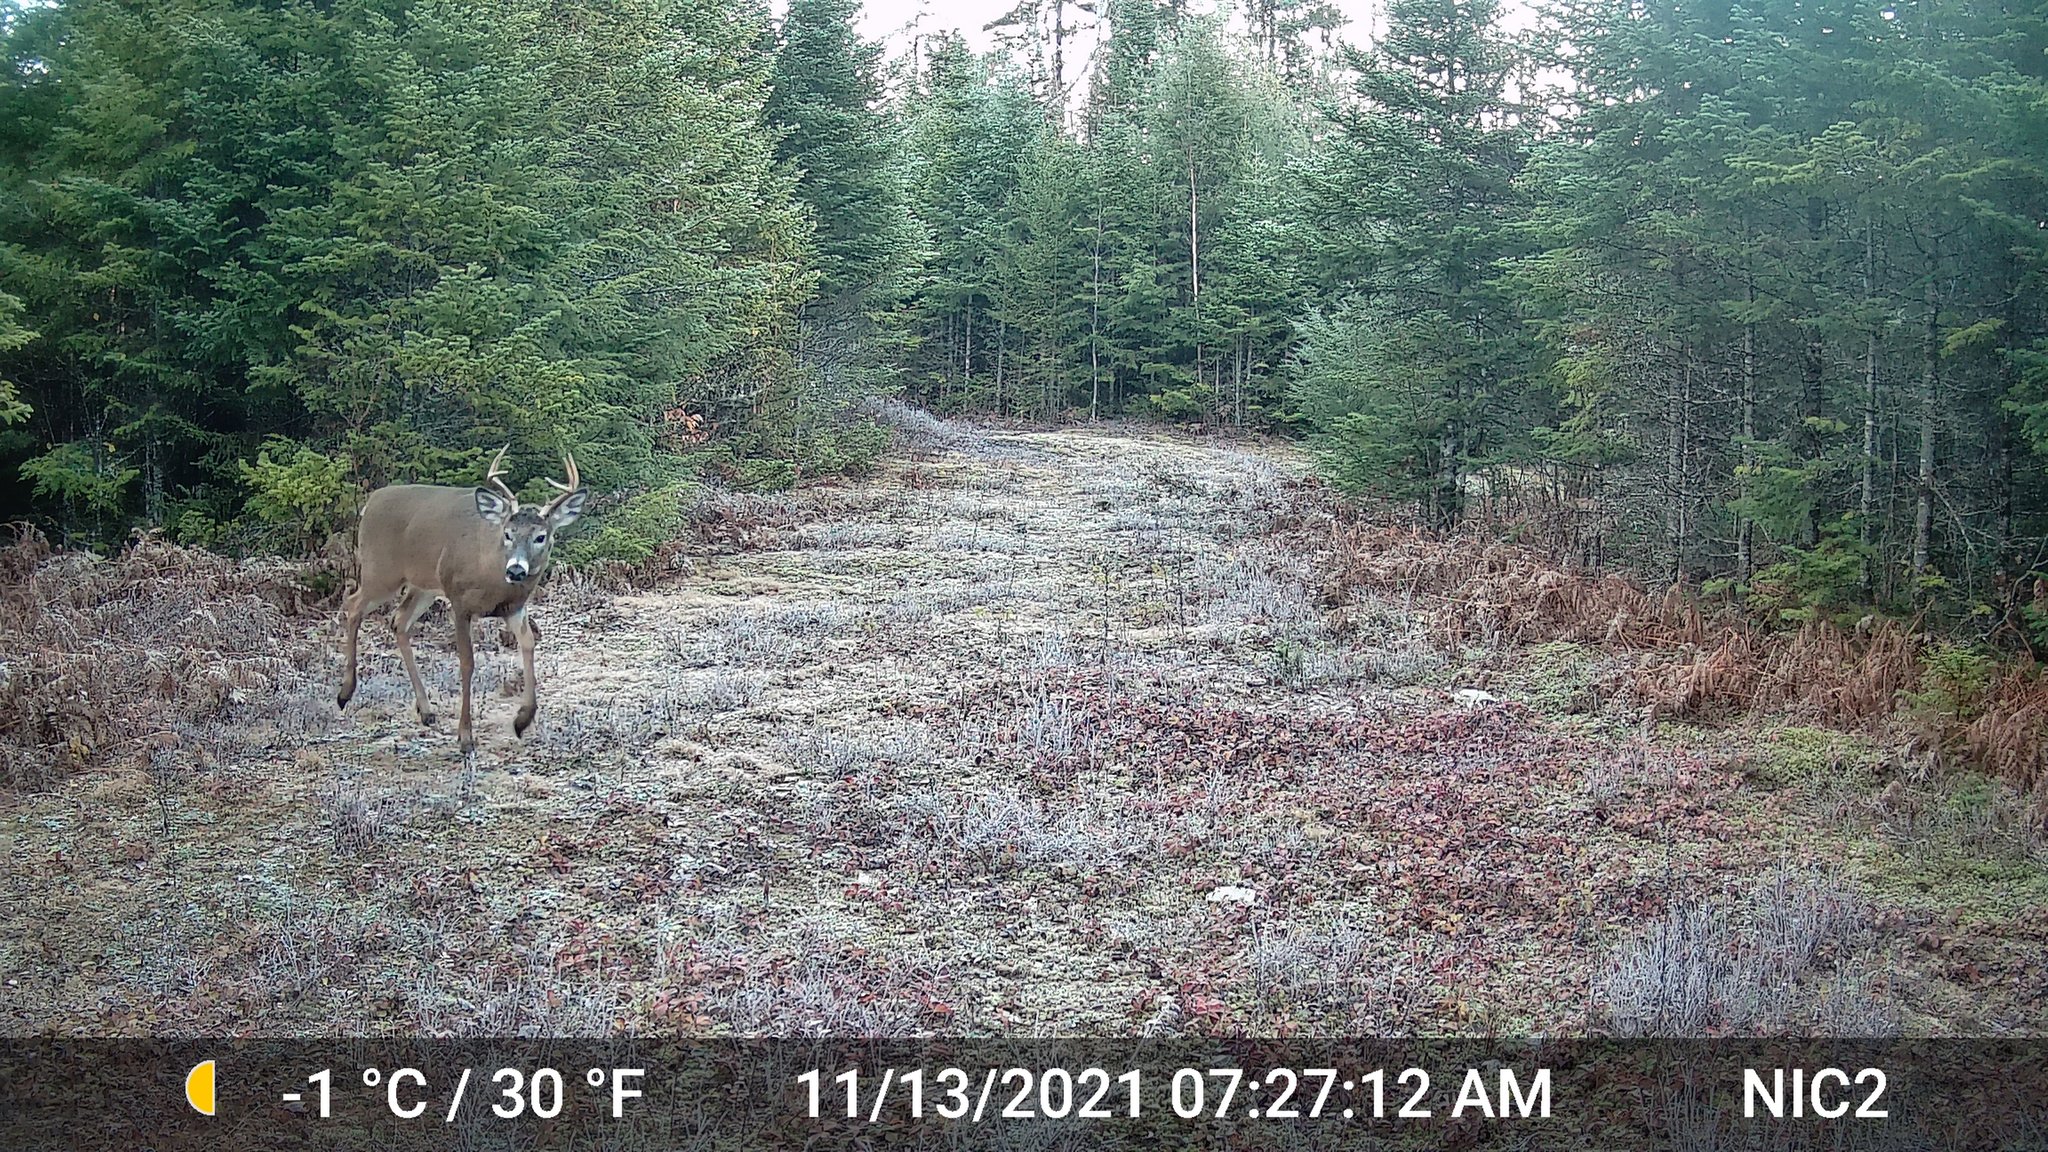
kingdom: Animalia
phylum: Chordata
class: Mammalia
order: Artiodactyla
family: Cervidae
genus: Odocoileus
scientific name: Odocoileus virginianus
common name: White-tailed deer
